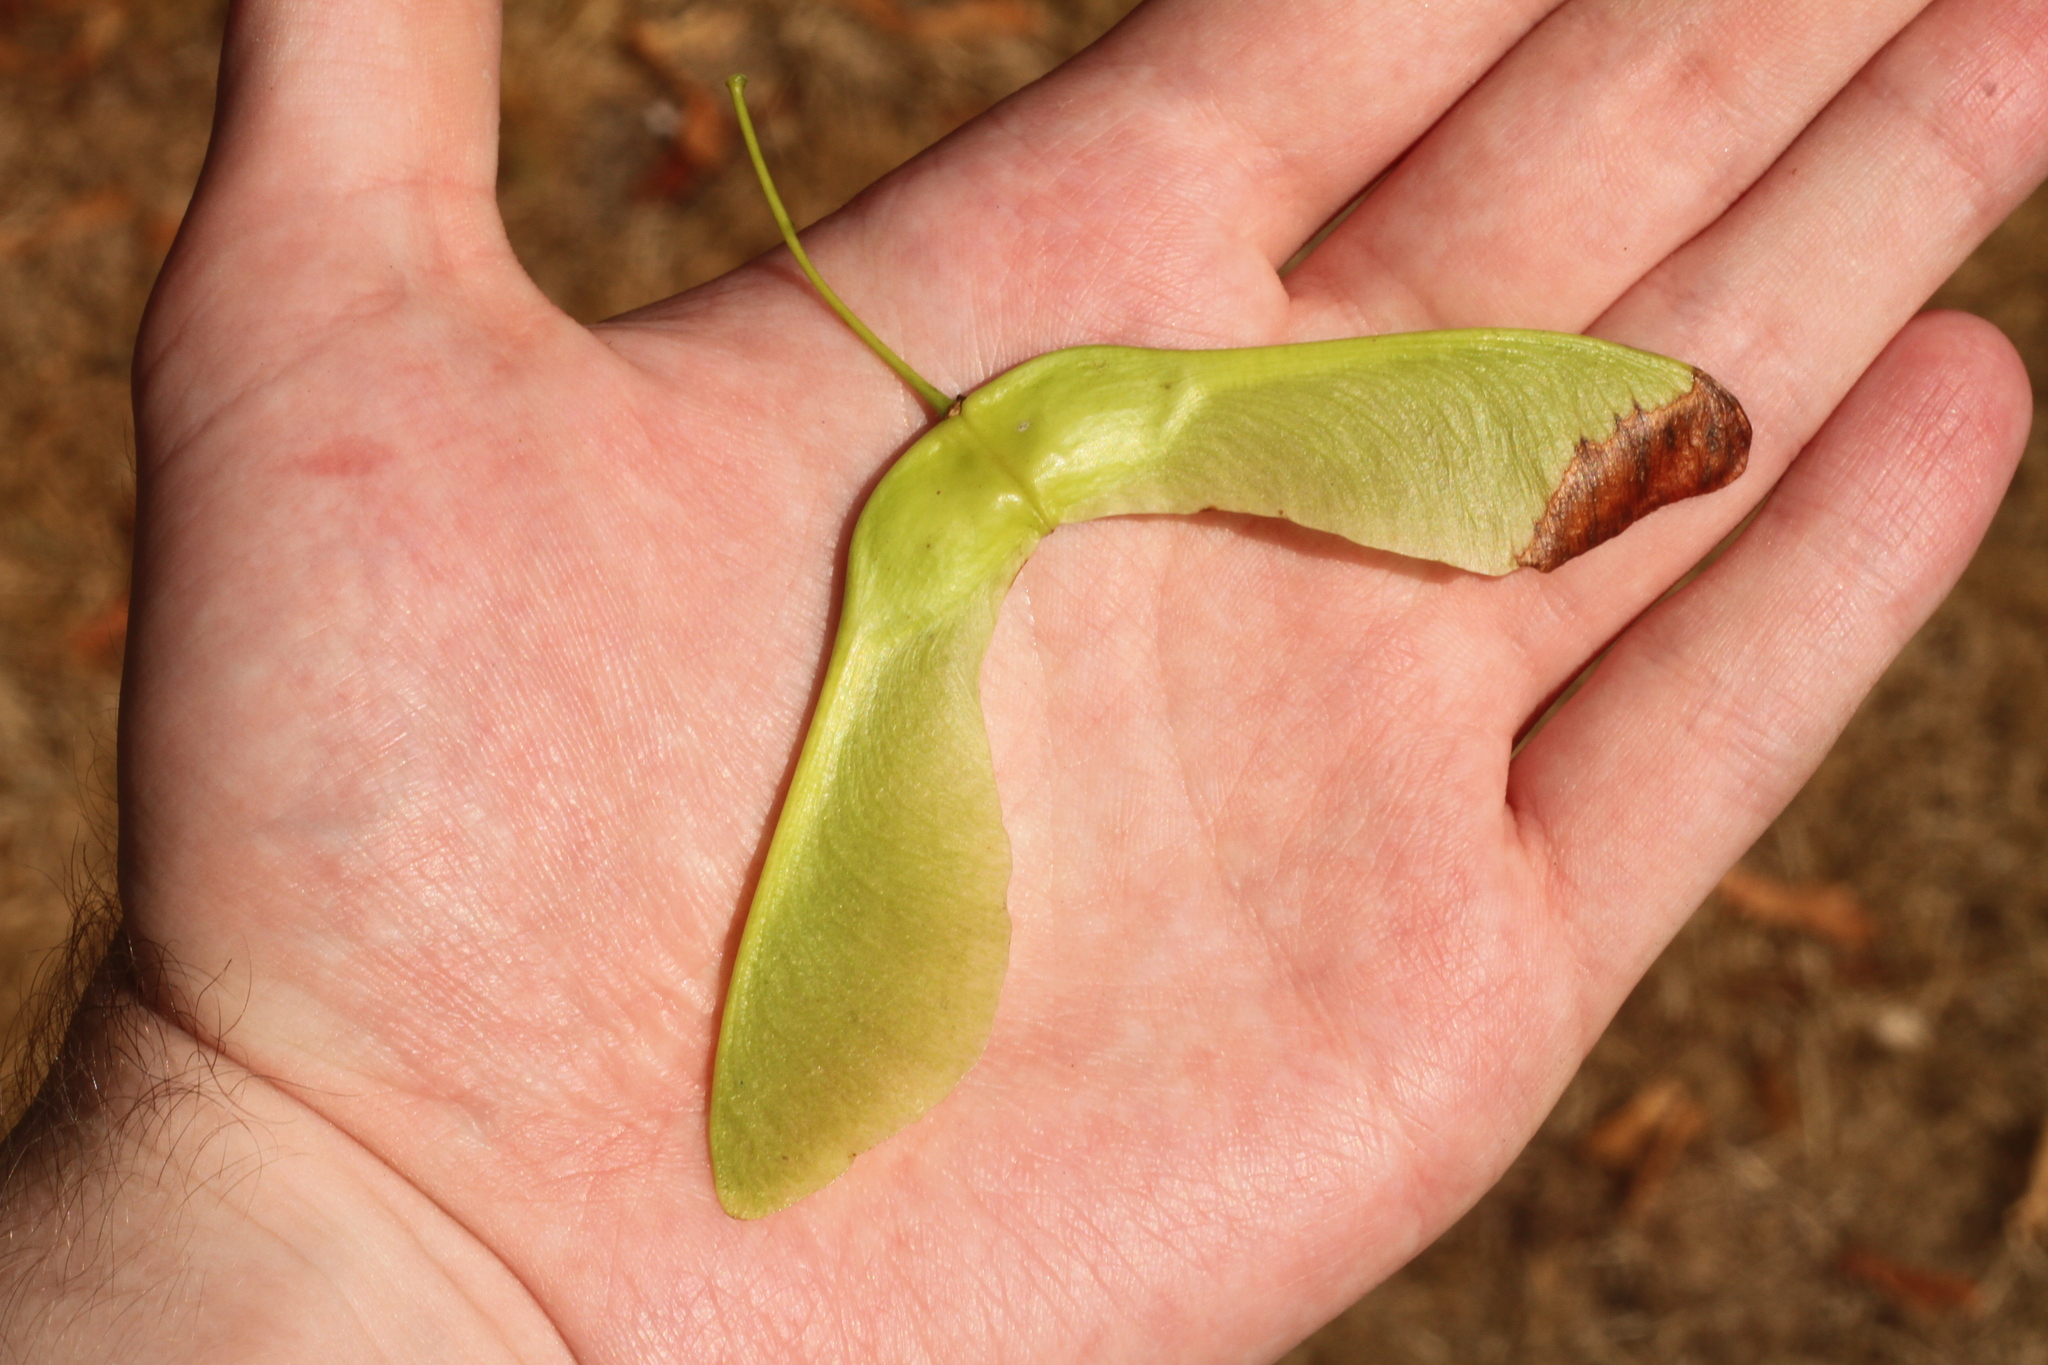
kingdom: Plantae
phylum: Tracheophyta
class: Magnoliopsida
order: Sapindales
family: Sapindaceae
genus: Acer
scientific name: Acer platanoides
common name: Norway maple
